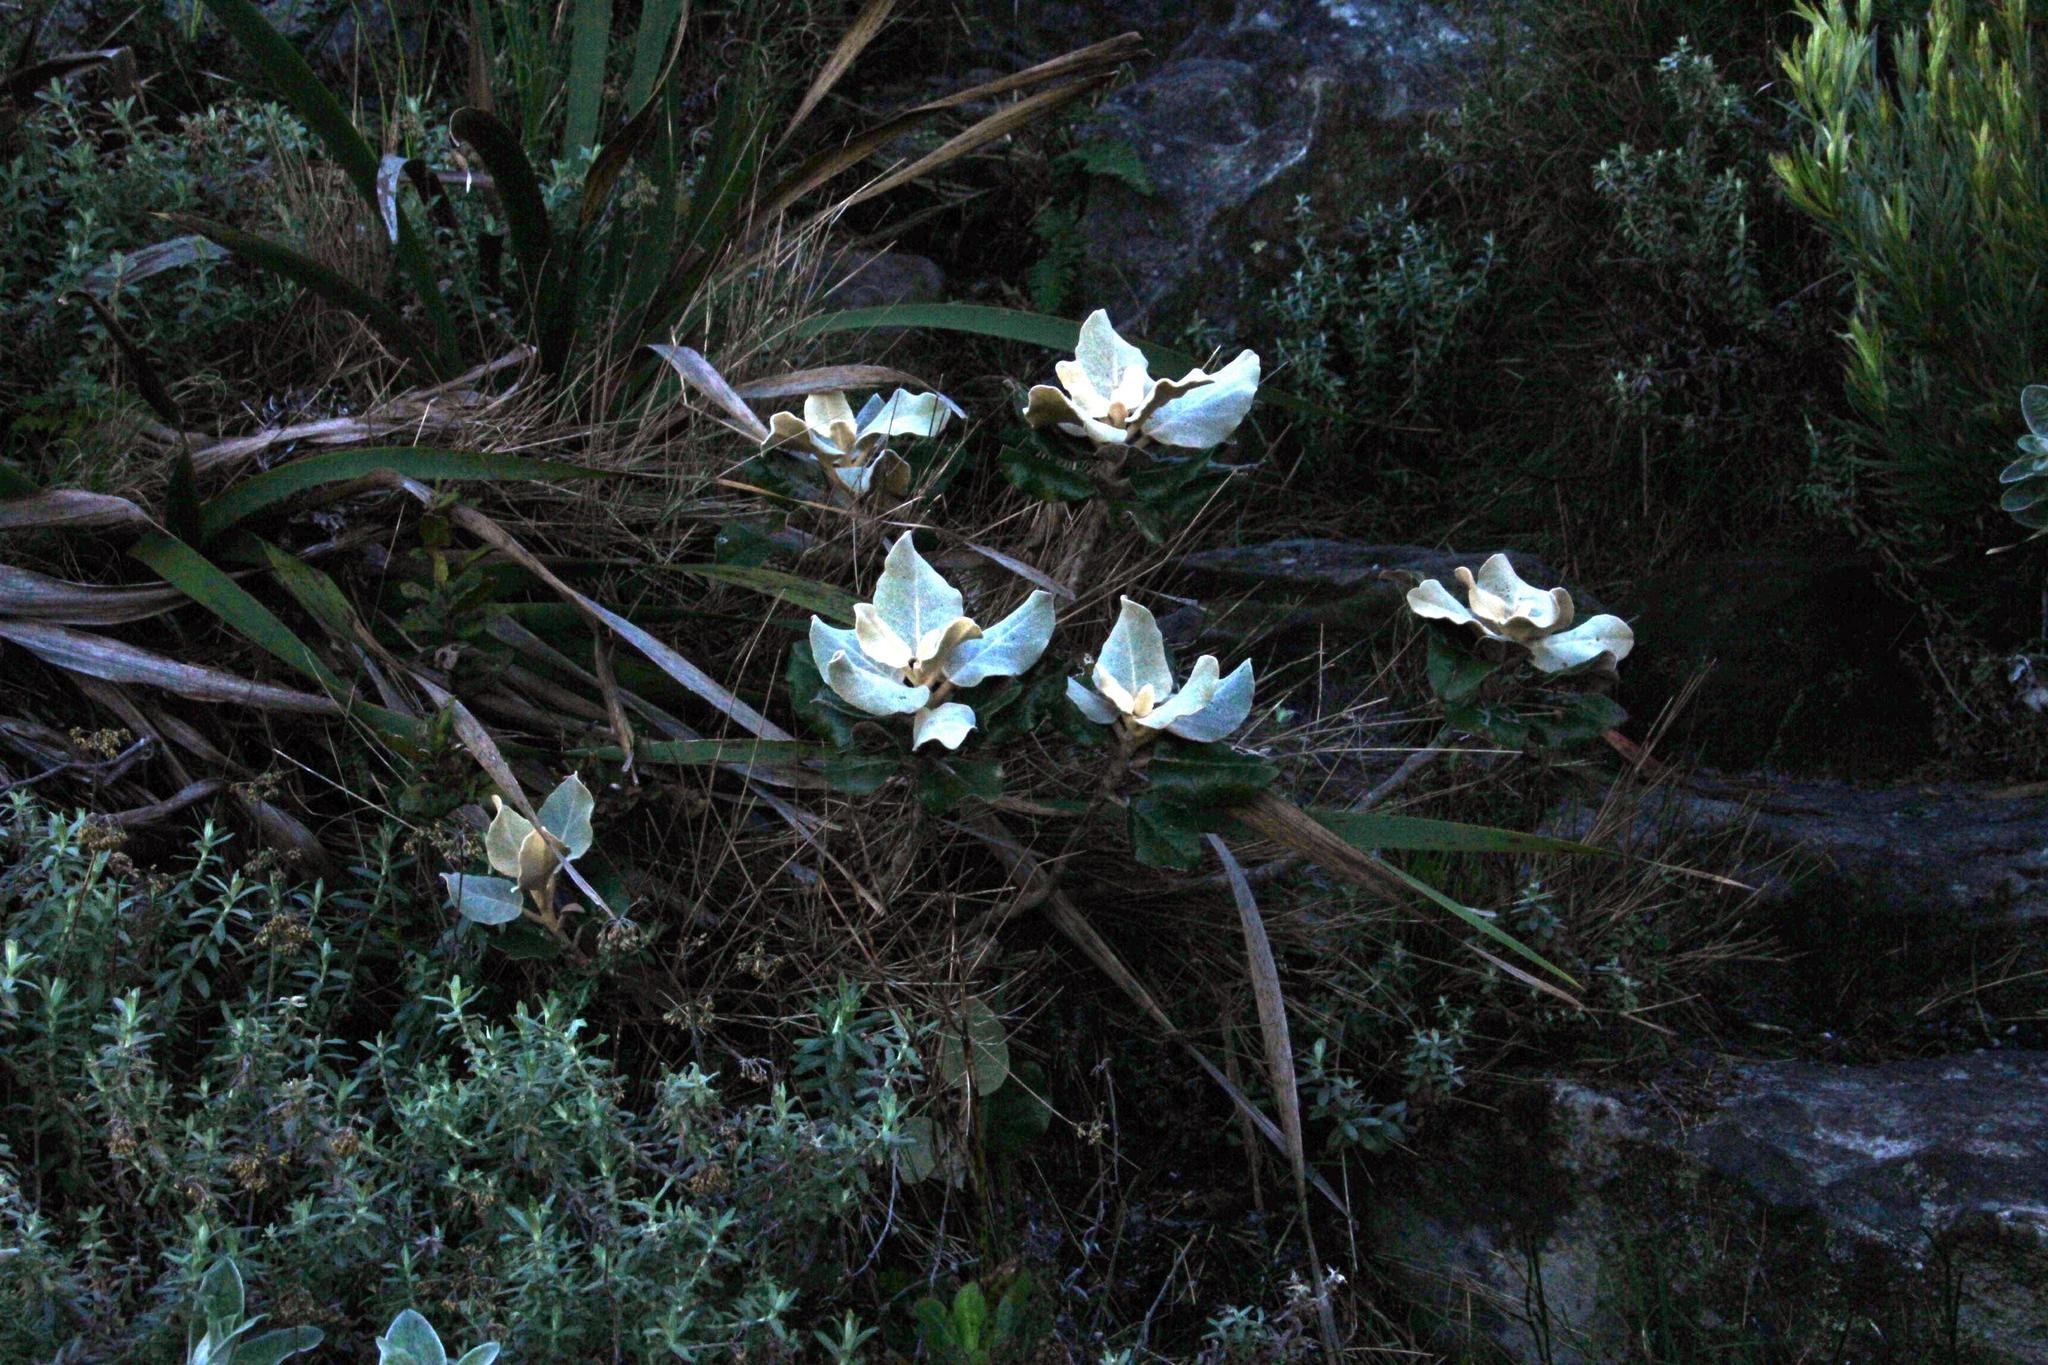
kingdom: Plantae
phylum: Tracheophyta
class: Magnoliopsida
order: Asterales
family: Asteraceae
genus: Capelio
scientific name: Capelio tabularis
